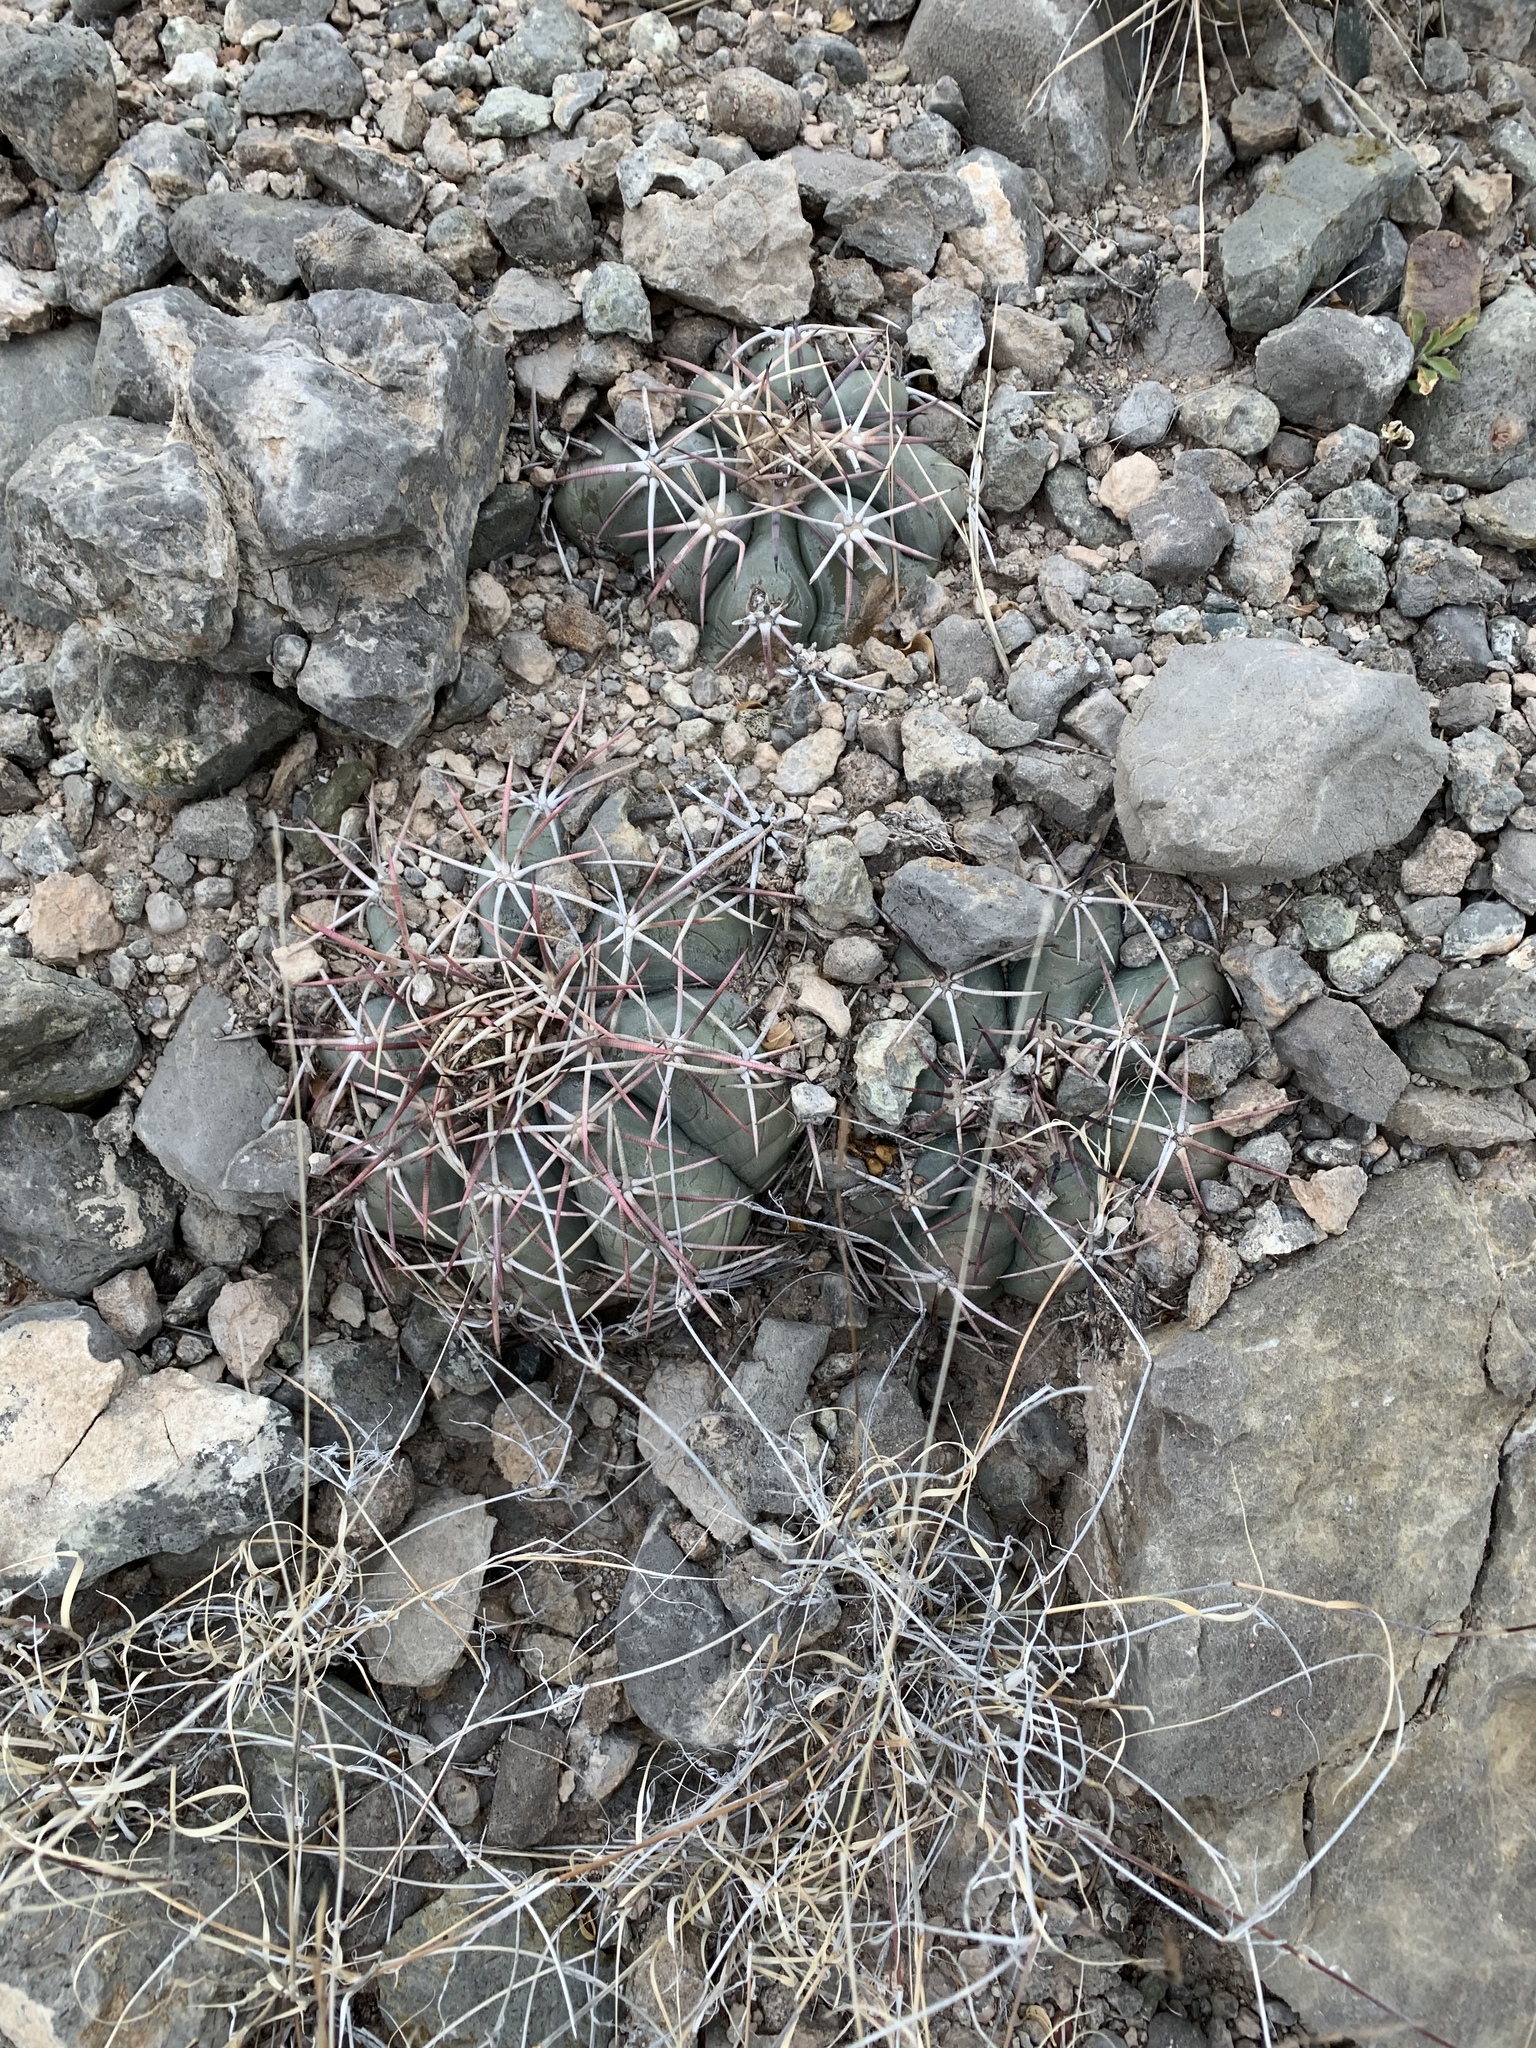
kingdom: Plantae
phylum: Tracheophyta
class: Magnoliopsida
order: Caryophyllales
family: Cactaceae
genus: Echinocactus
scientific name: Echinocactus horizonthalonius
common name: Devilshead
